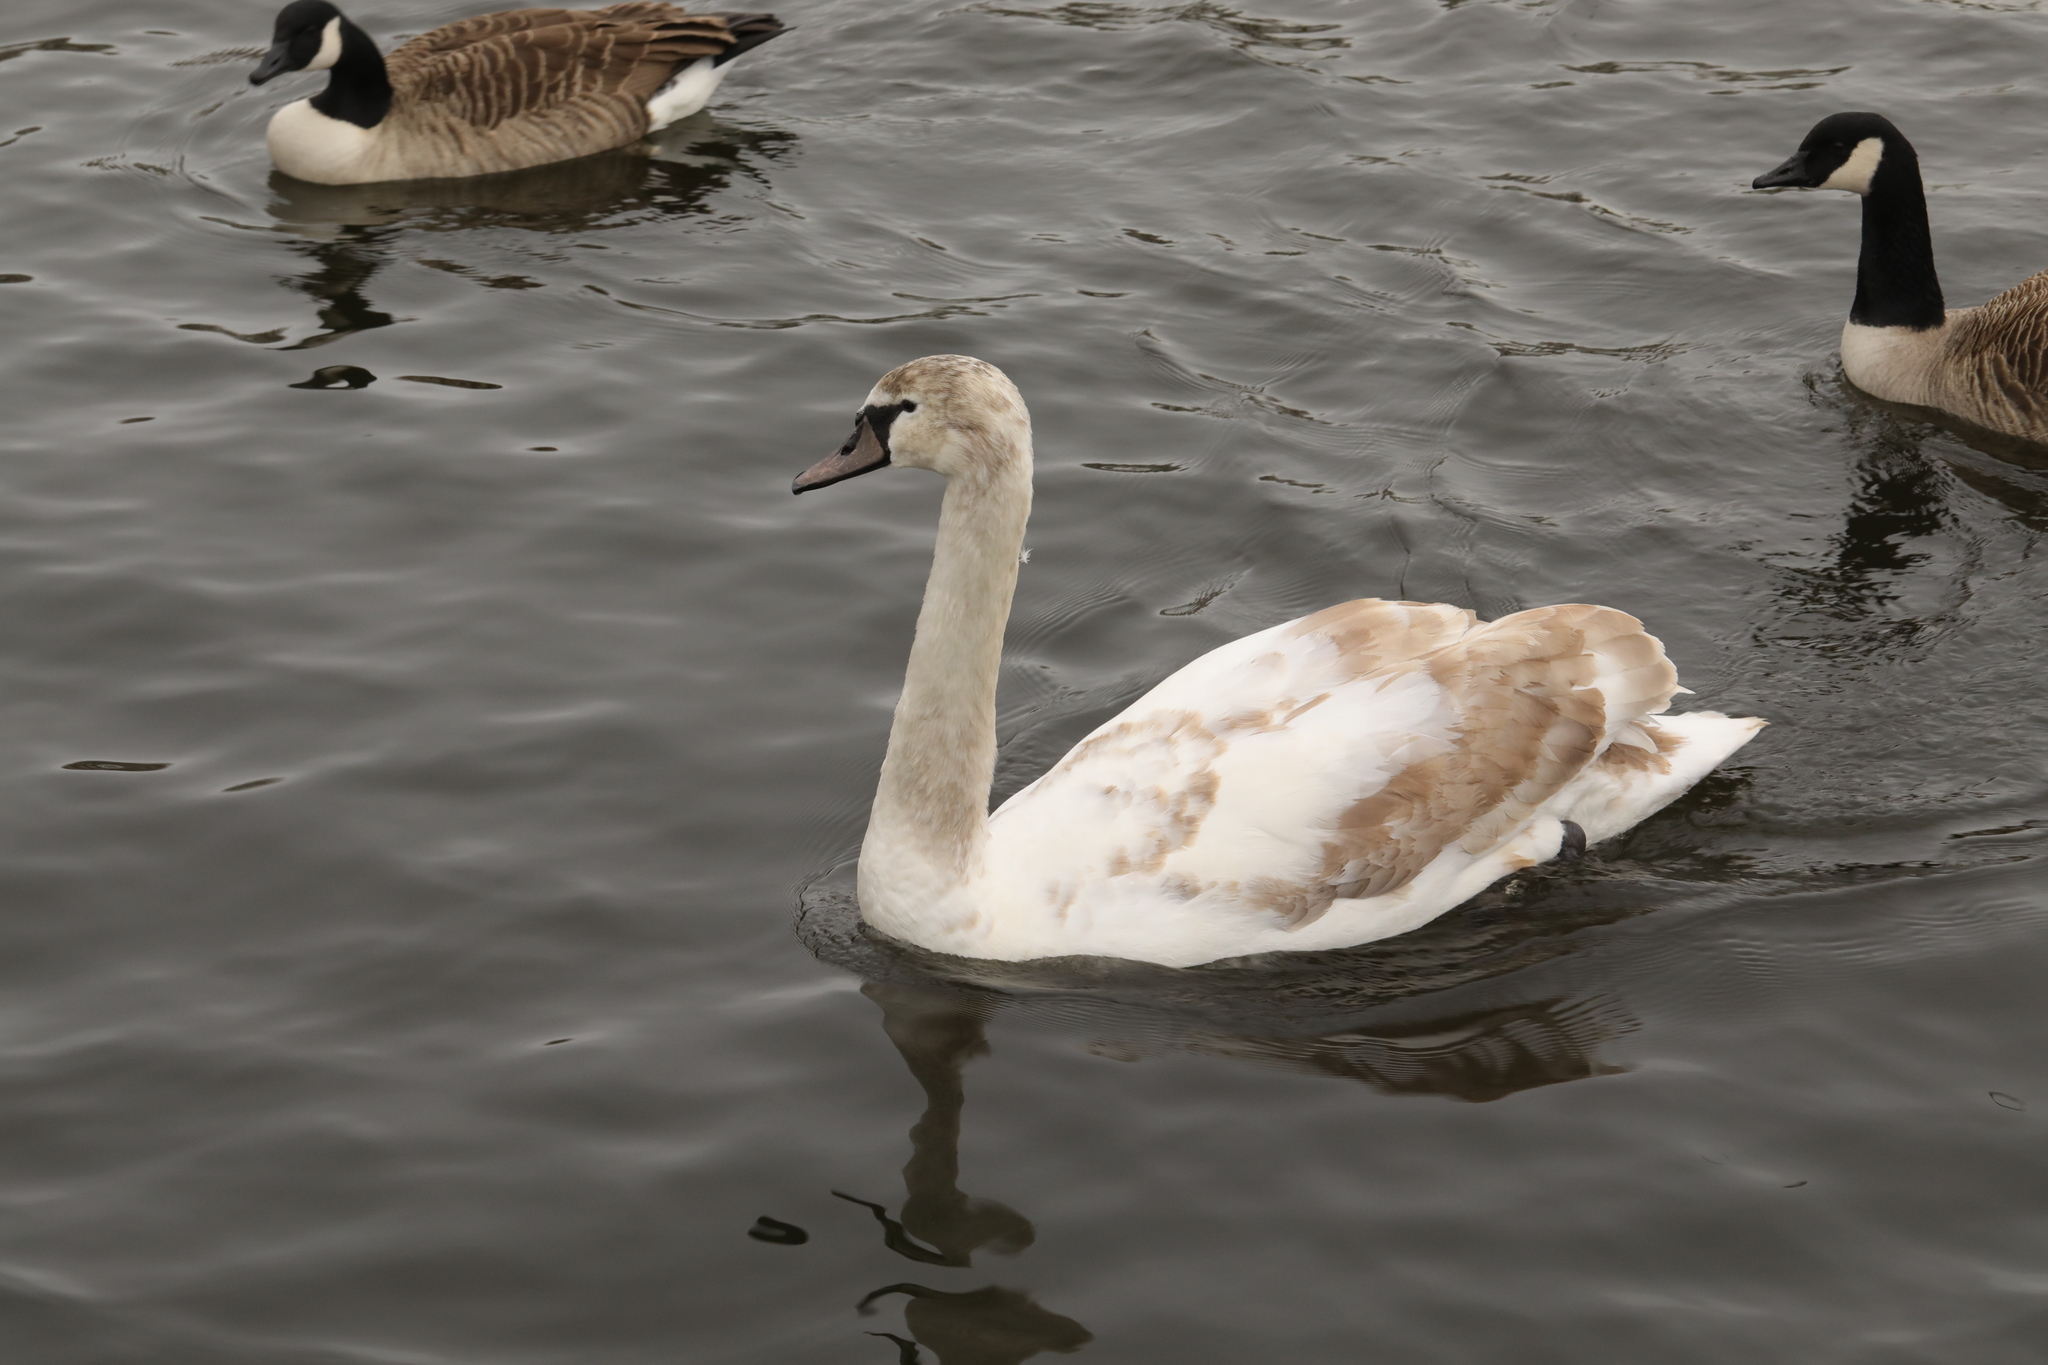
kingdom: Animalia
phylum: Chordata
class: Aves
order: Anseriformes
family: Anatidae
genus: Cygnus
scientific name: Cygnus olor
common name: Mute swan
